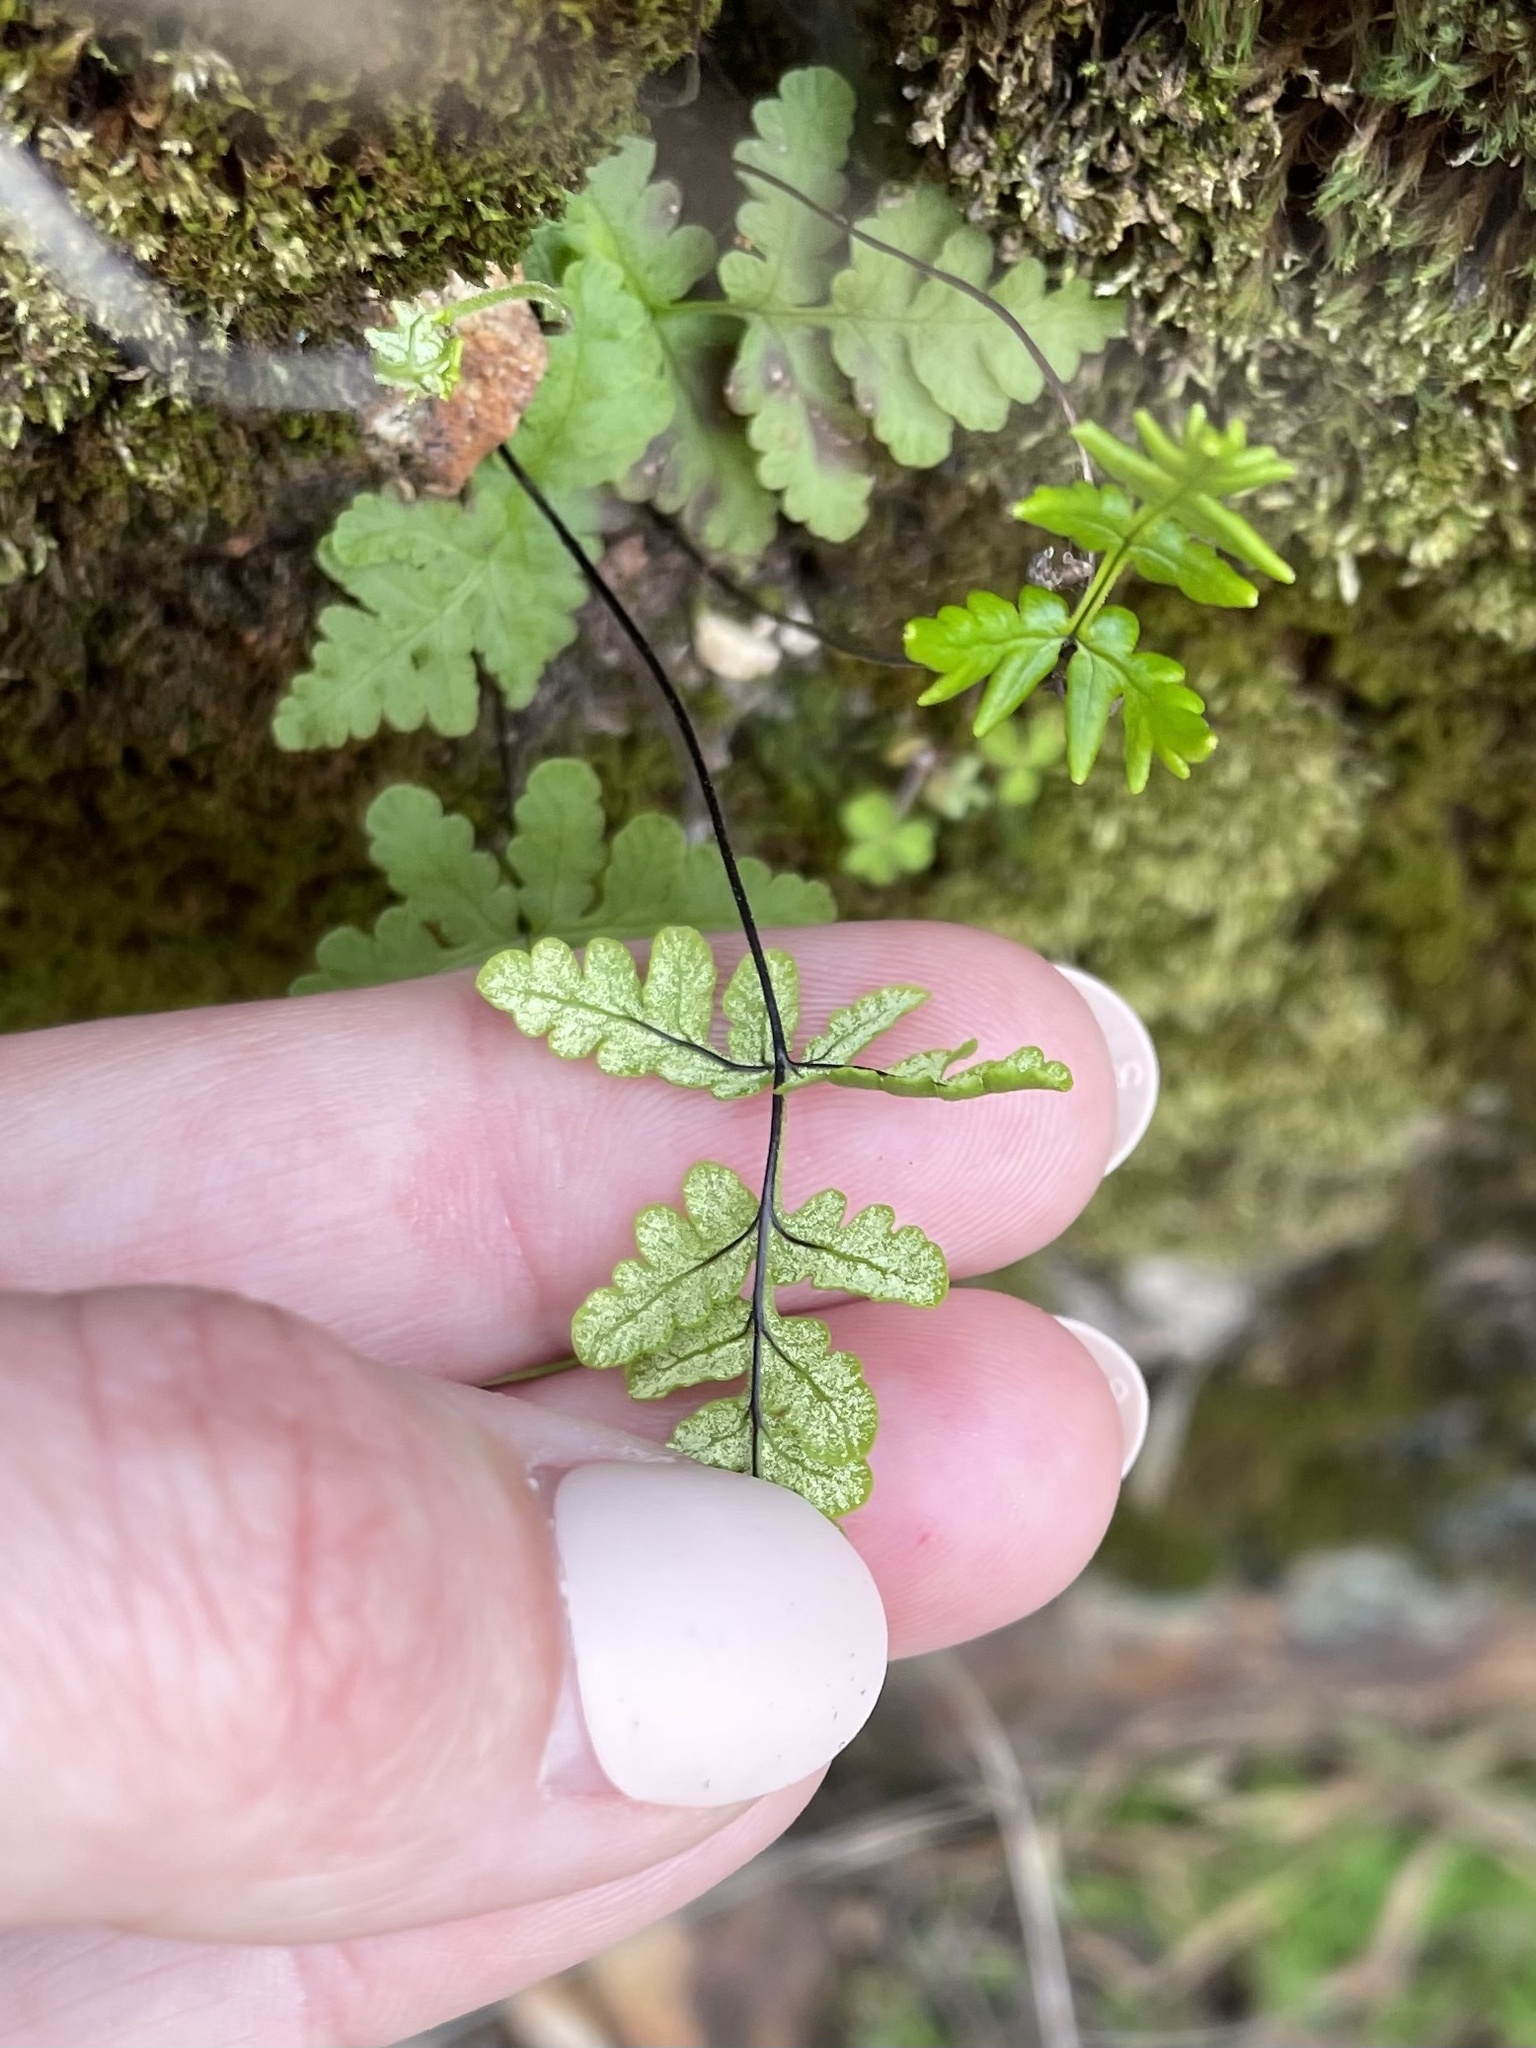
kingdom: Plantae
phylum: Tracheophyta
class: Polypodiopsida
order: Polypodiales
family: Pteridaceae
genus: Pentagramma
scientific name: Pentagramma triangularis
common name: Gold fern
